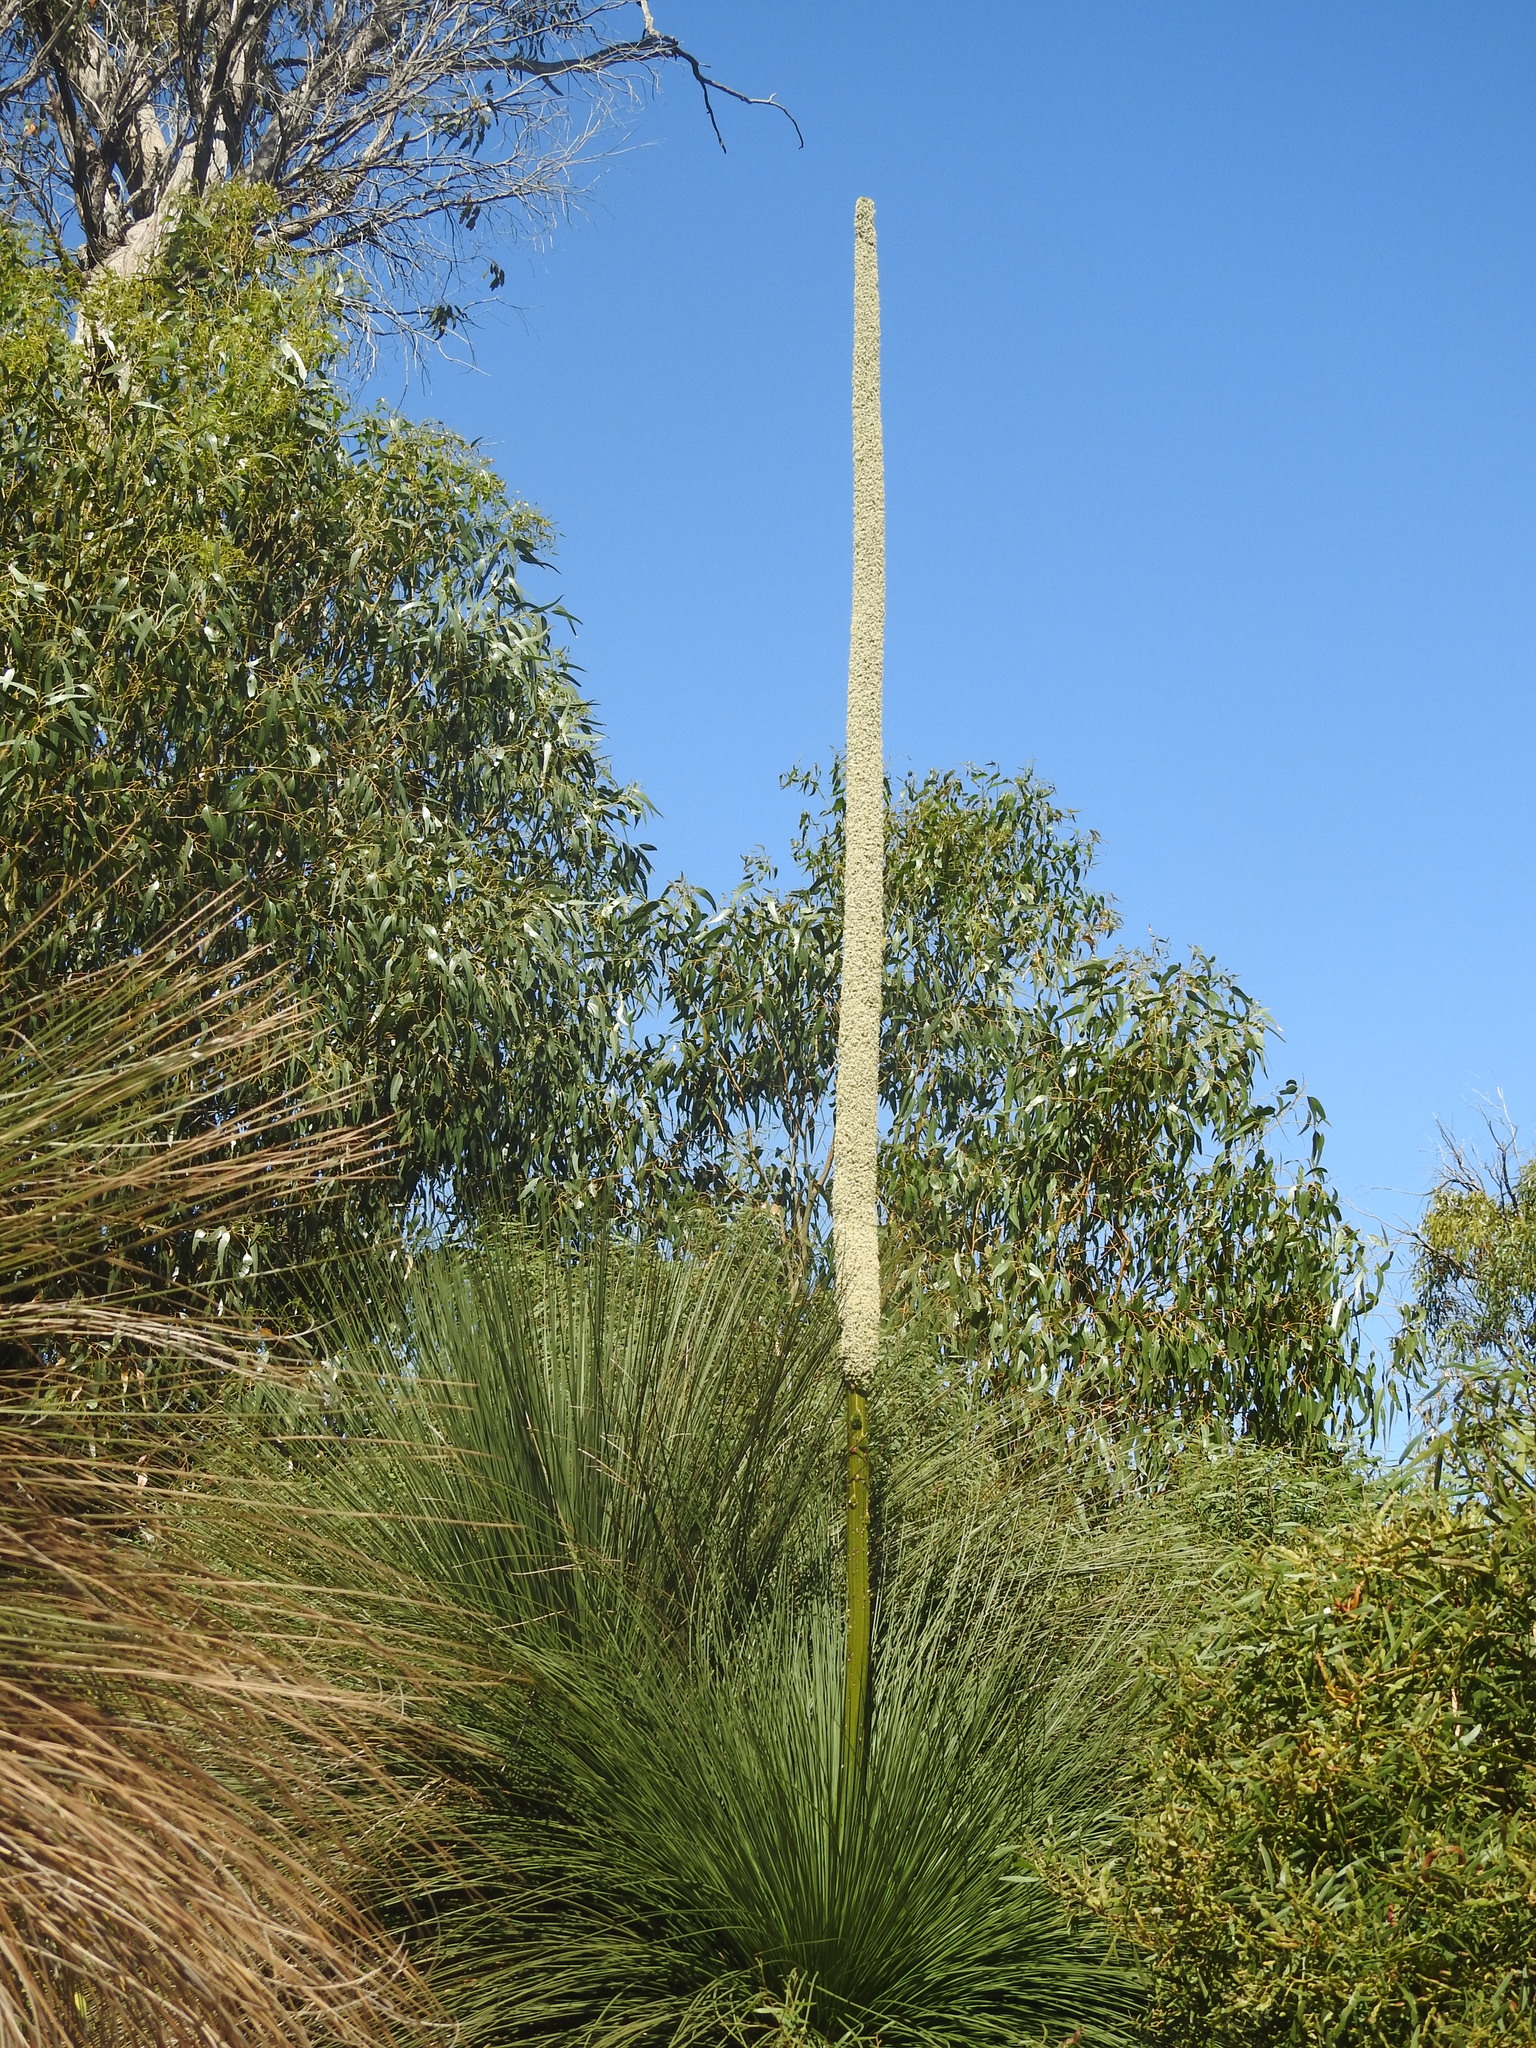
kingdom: Plantae
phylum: Tracheophyta
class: Liliopsida
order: Asparagales
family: Asphodelaceae
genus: Xanthorrhoea
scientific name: Xanthorrhoea preissii
